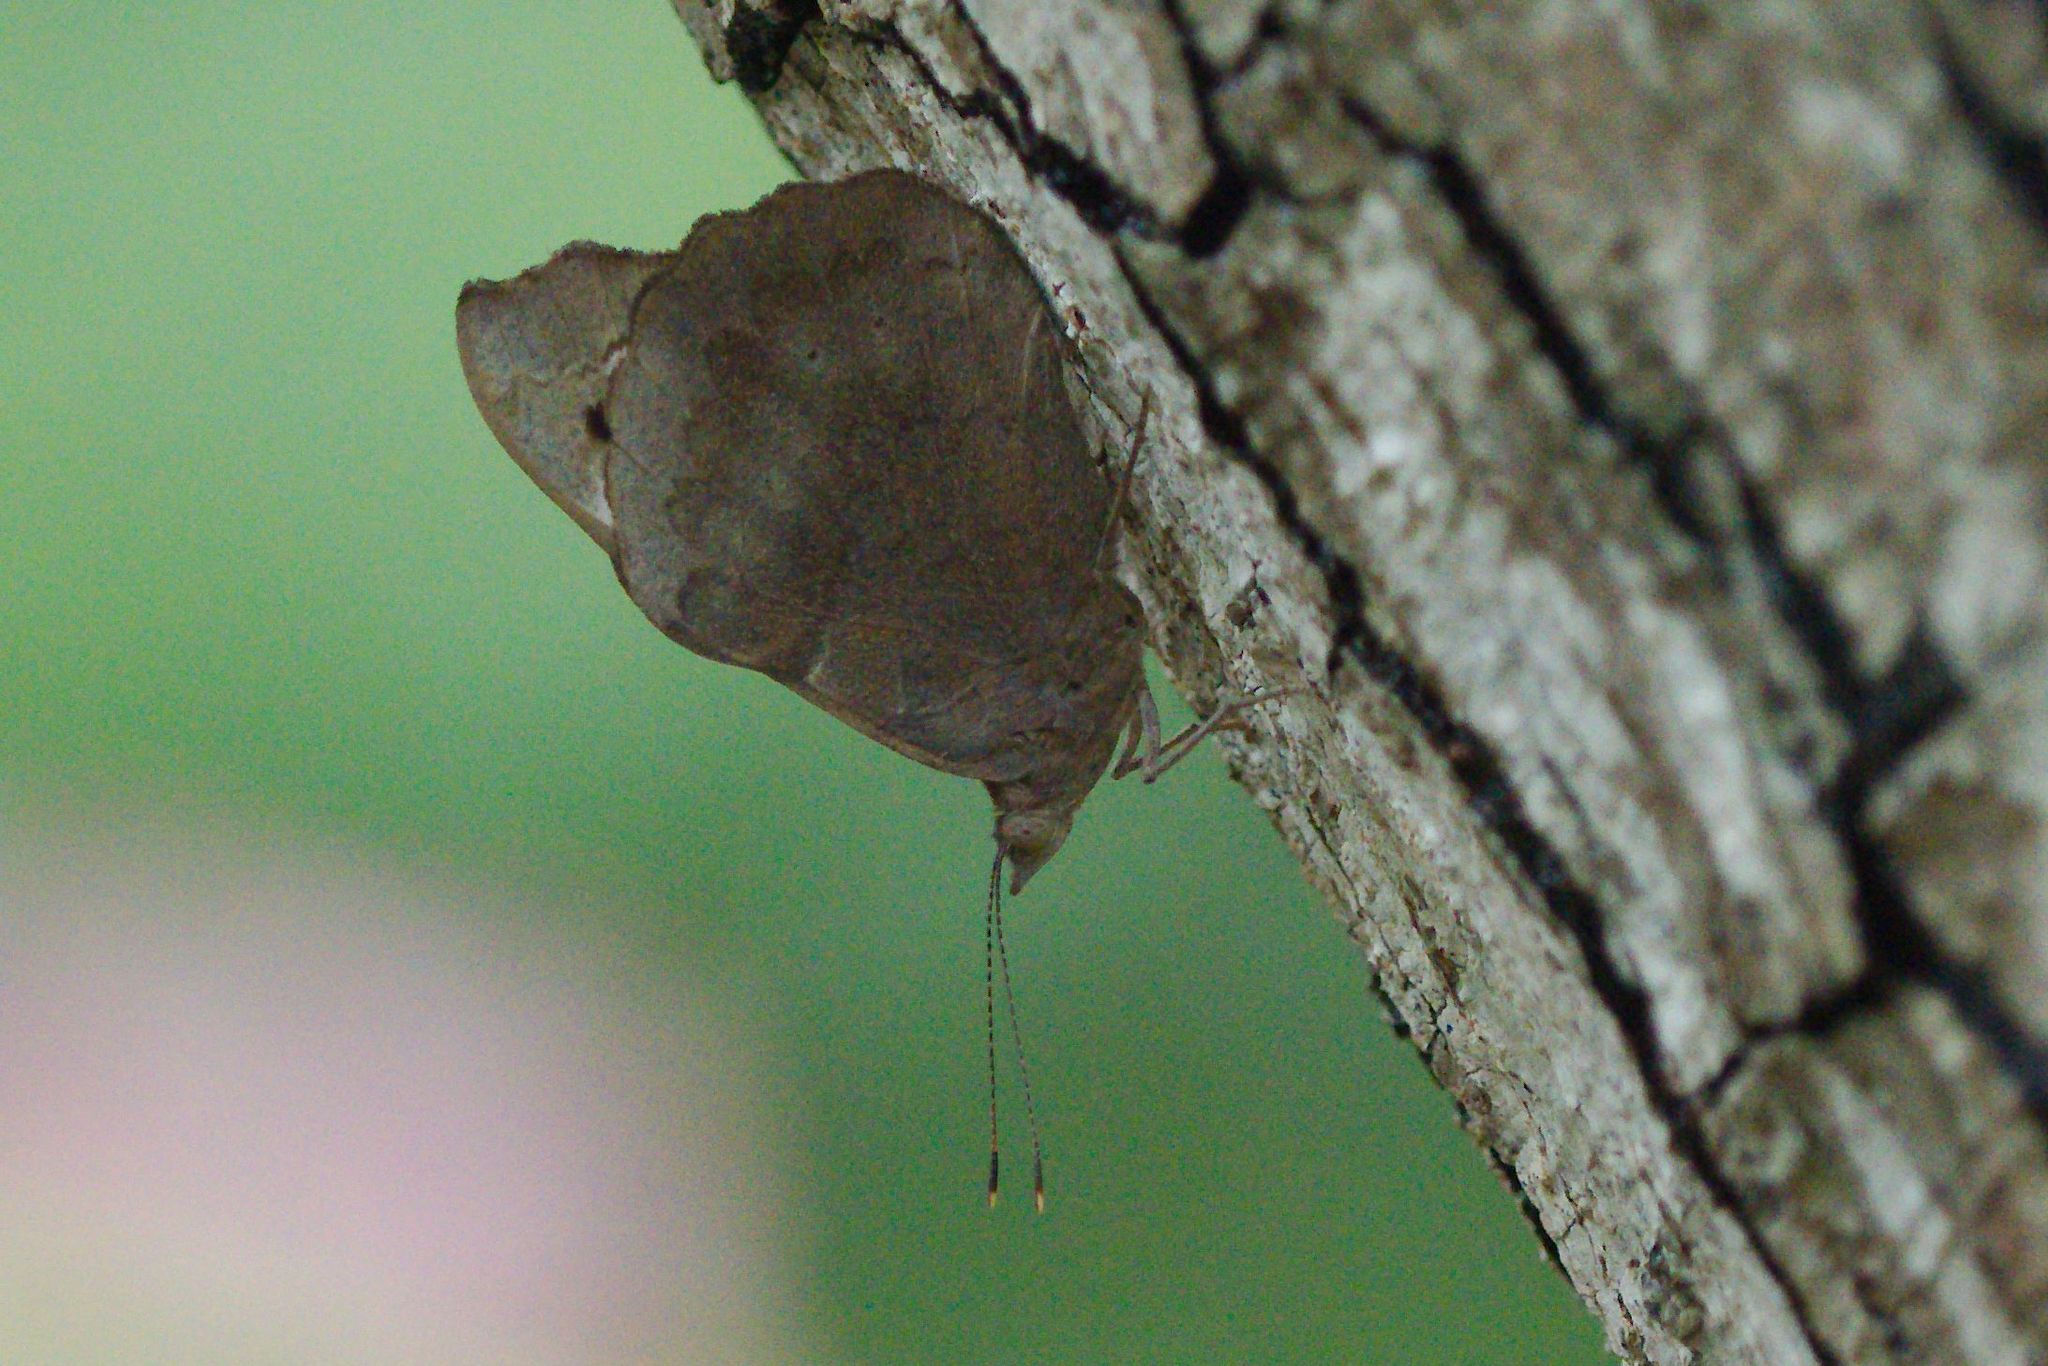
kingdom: Animalia
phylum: Arthropoda
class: Insecta
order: Lepidoptera
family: Nymphalidae
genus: Eunica
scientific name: Eunica tatila
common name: Florida purplewing
